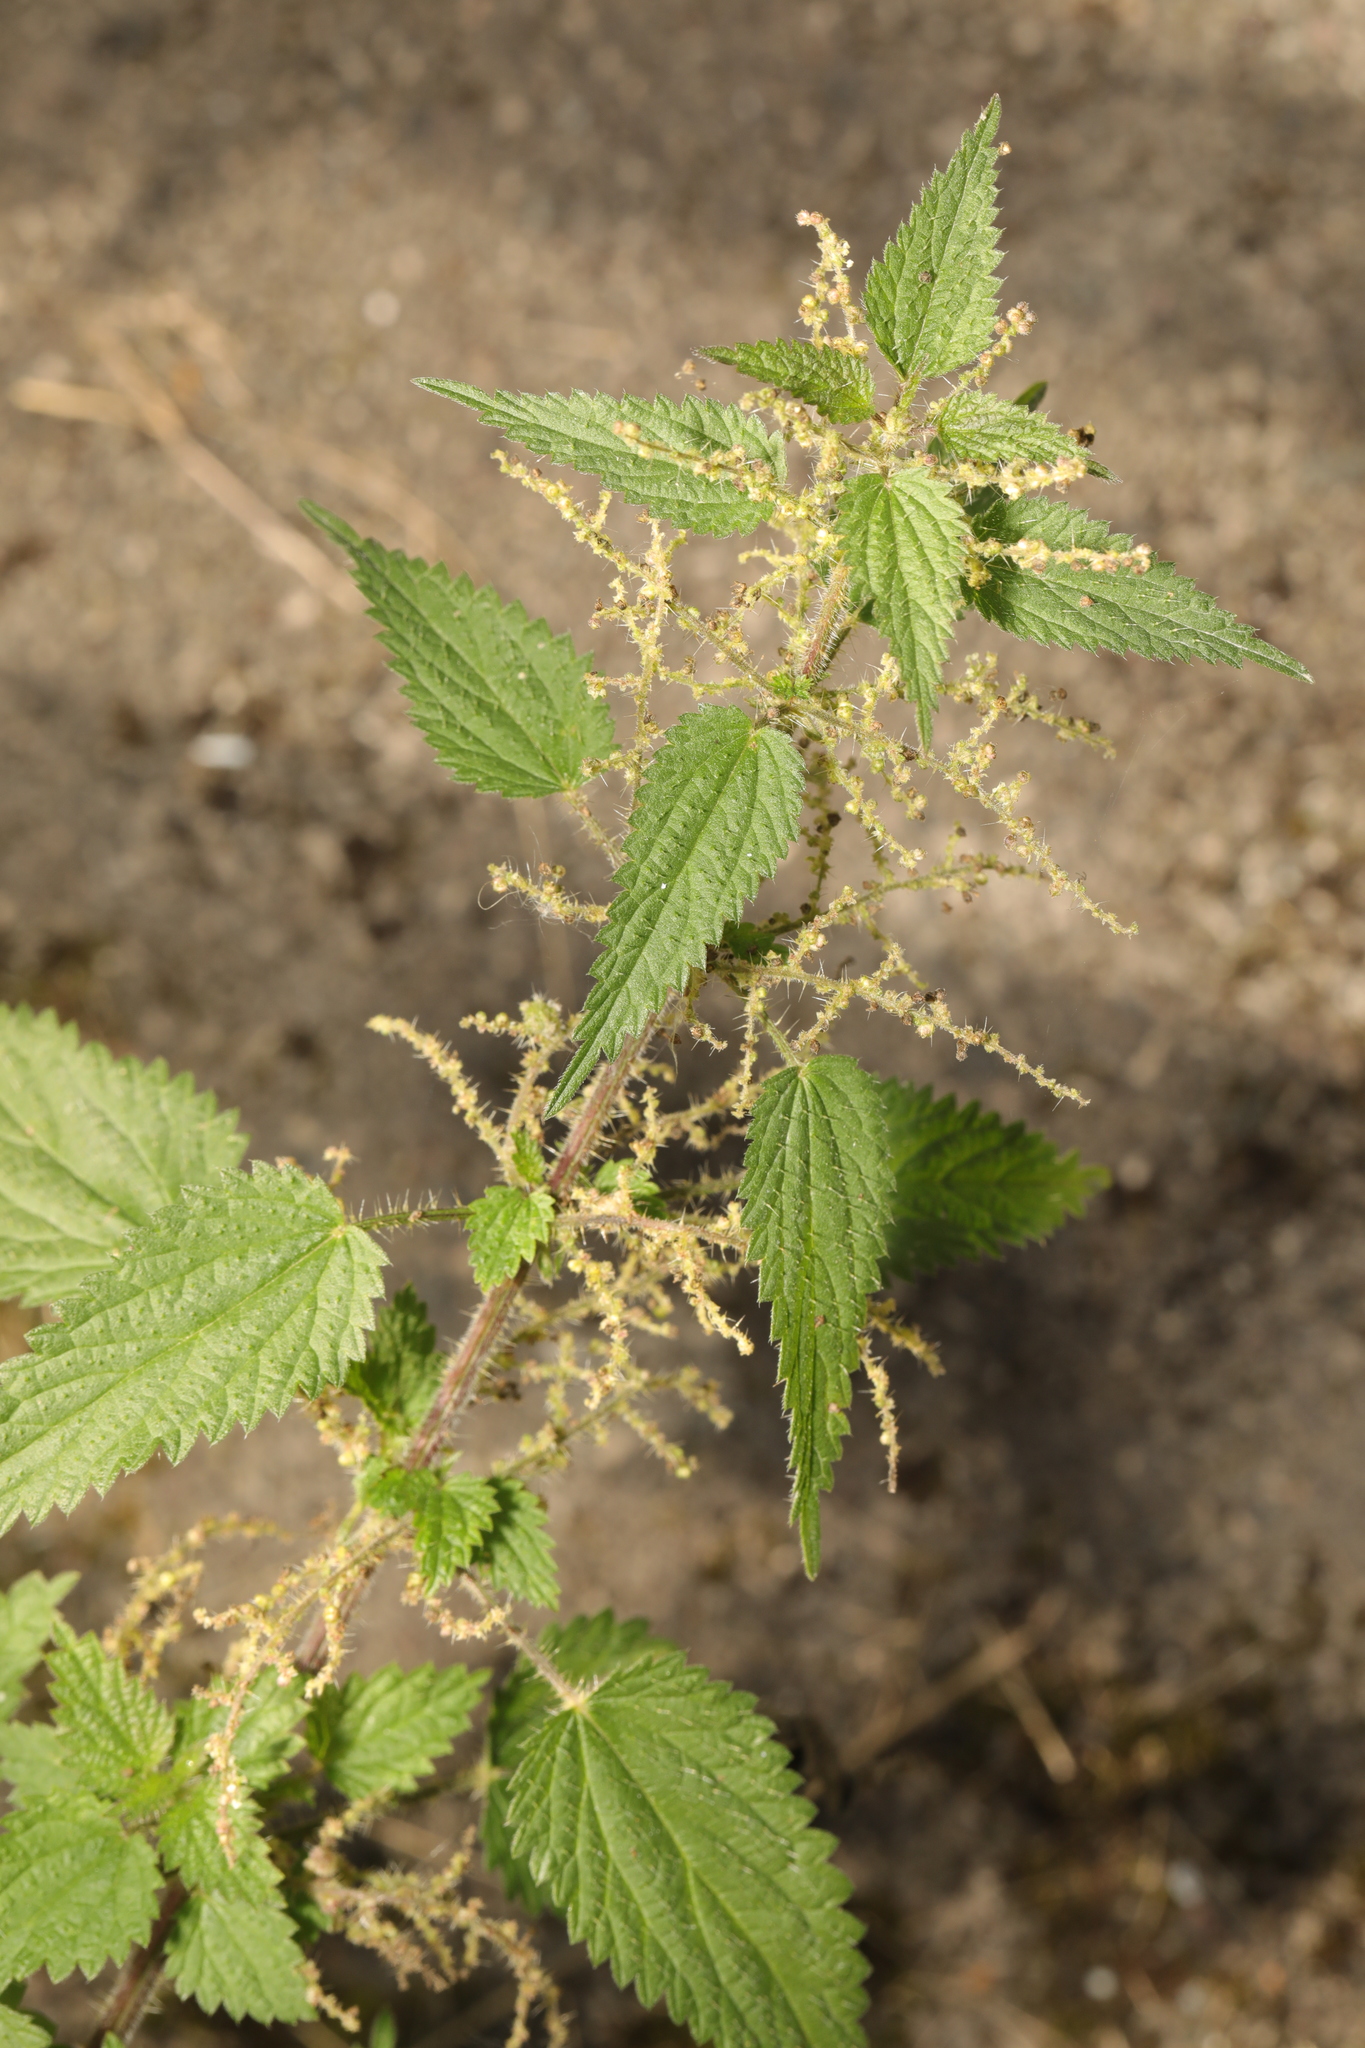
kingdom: Plantae
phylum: Tracheophyta
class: Magnoliopsida
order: Rosales
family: Urticaceae
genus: Urtica
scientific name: Urtica dioica
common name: Common nettle
